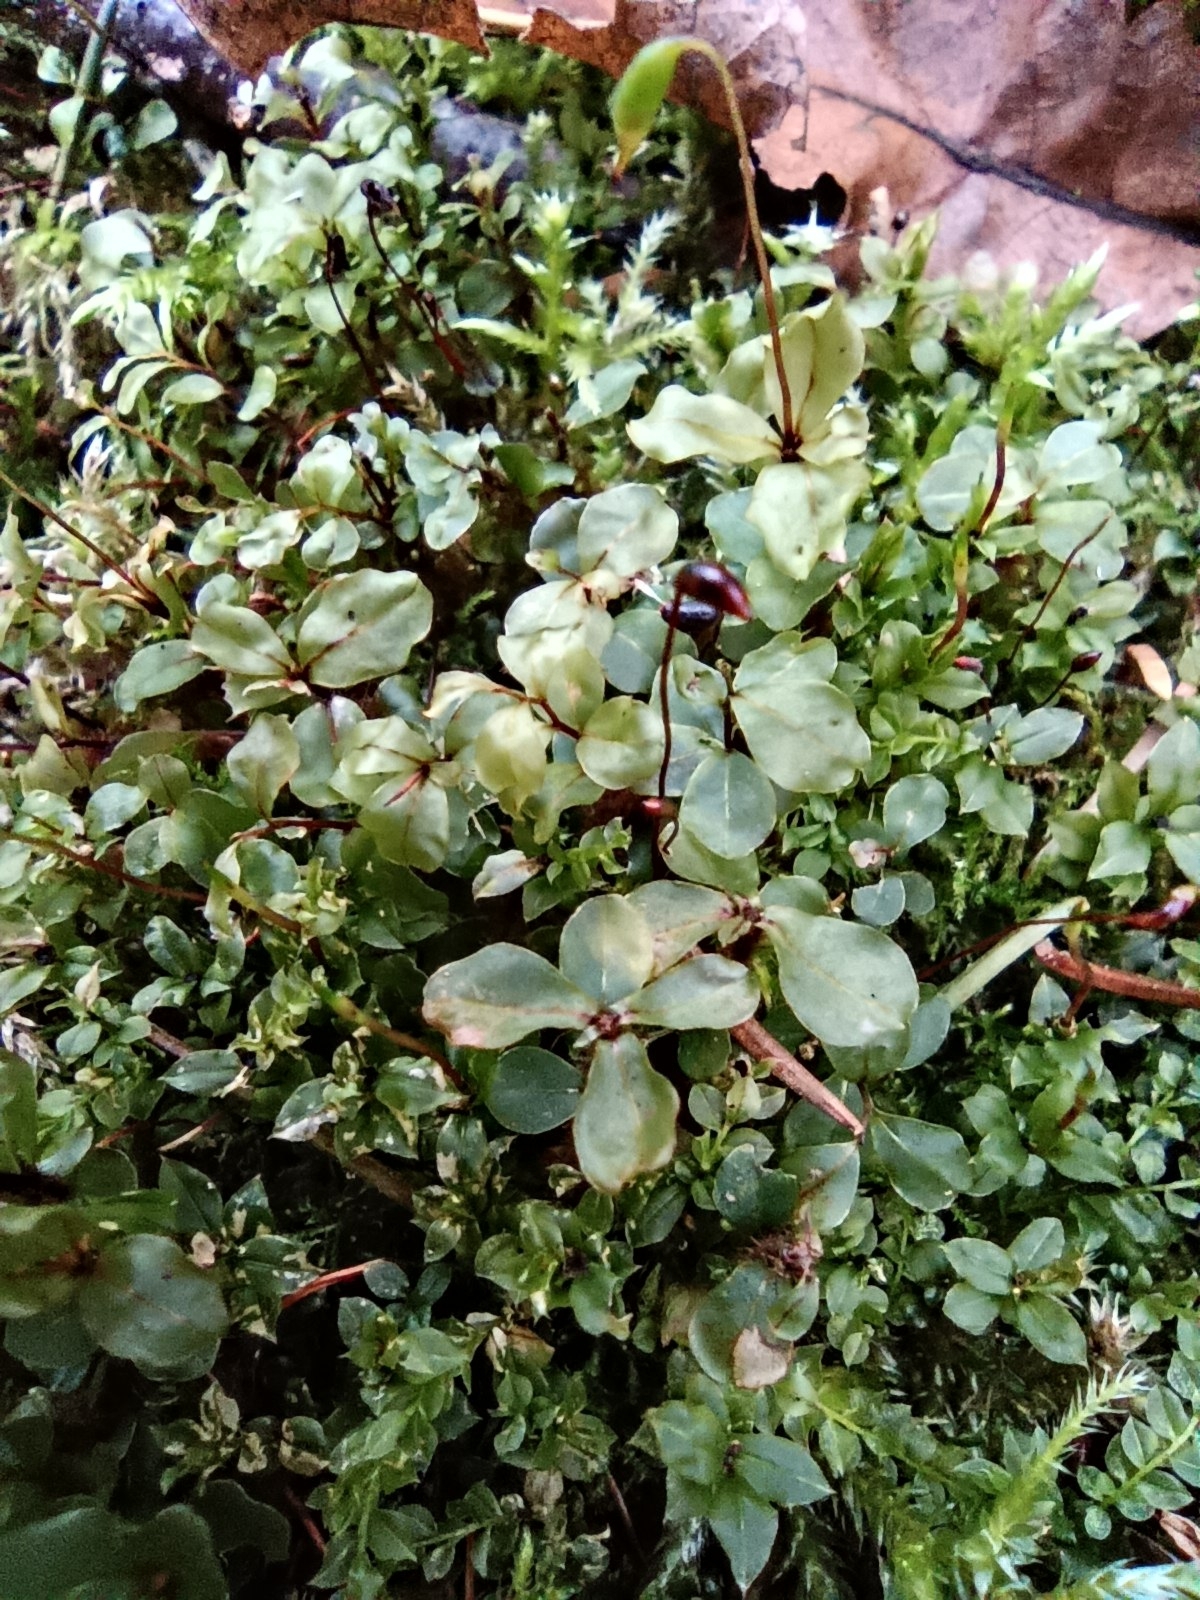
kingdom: Plantae
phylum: Bryophyta
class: Bryopsida
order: Bryales
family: Mniaceae
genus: Rhizomnium
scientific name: Rhizomnium punctatum
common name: Dotted leafy moss
